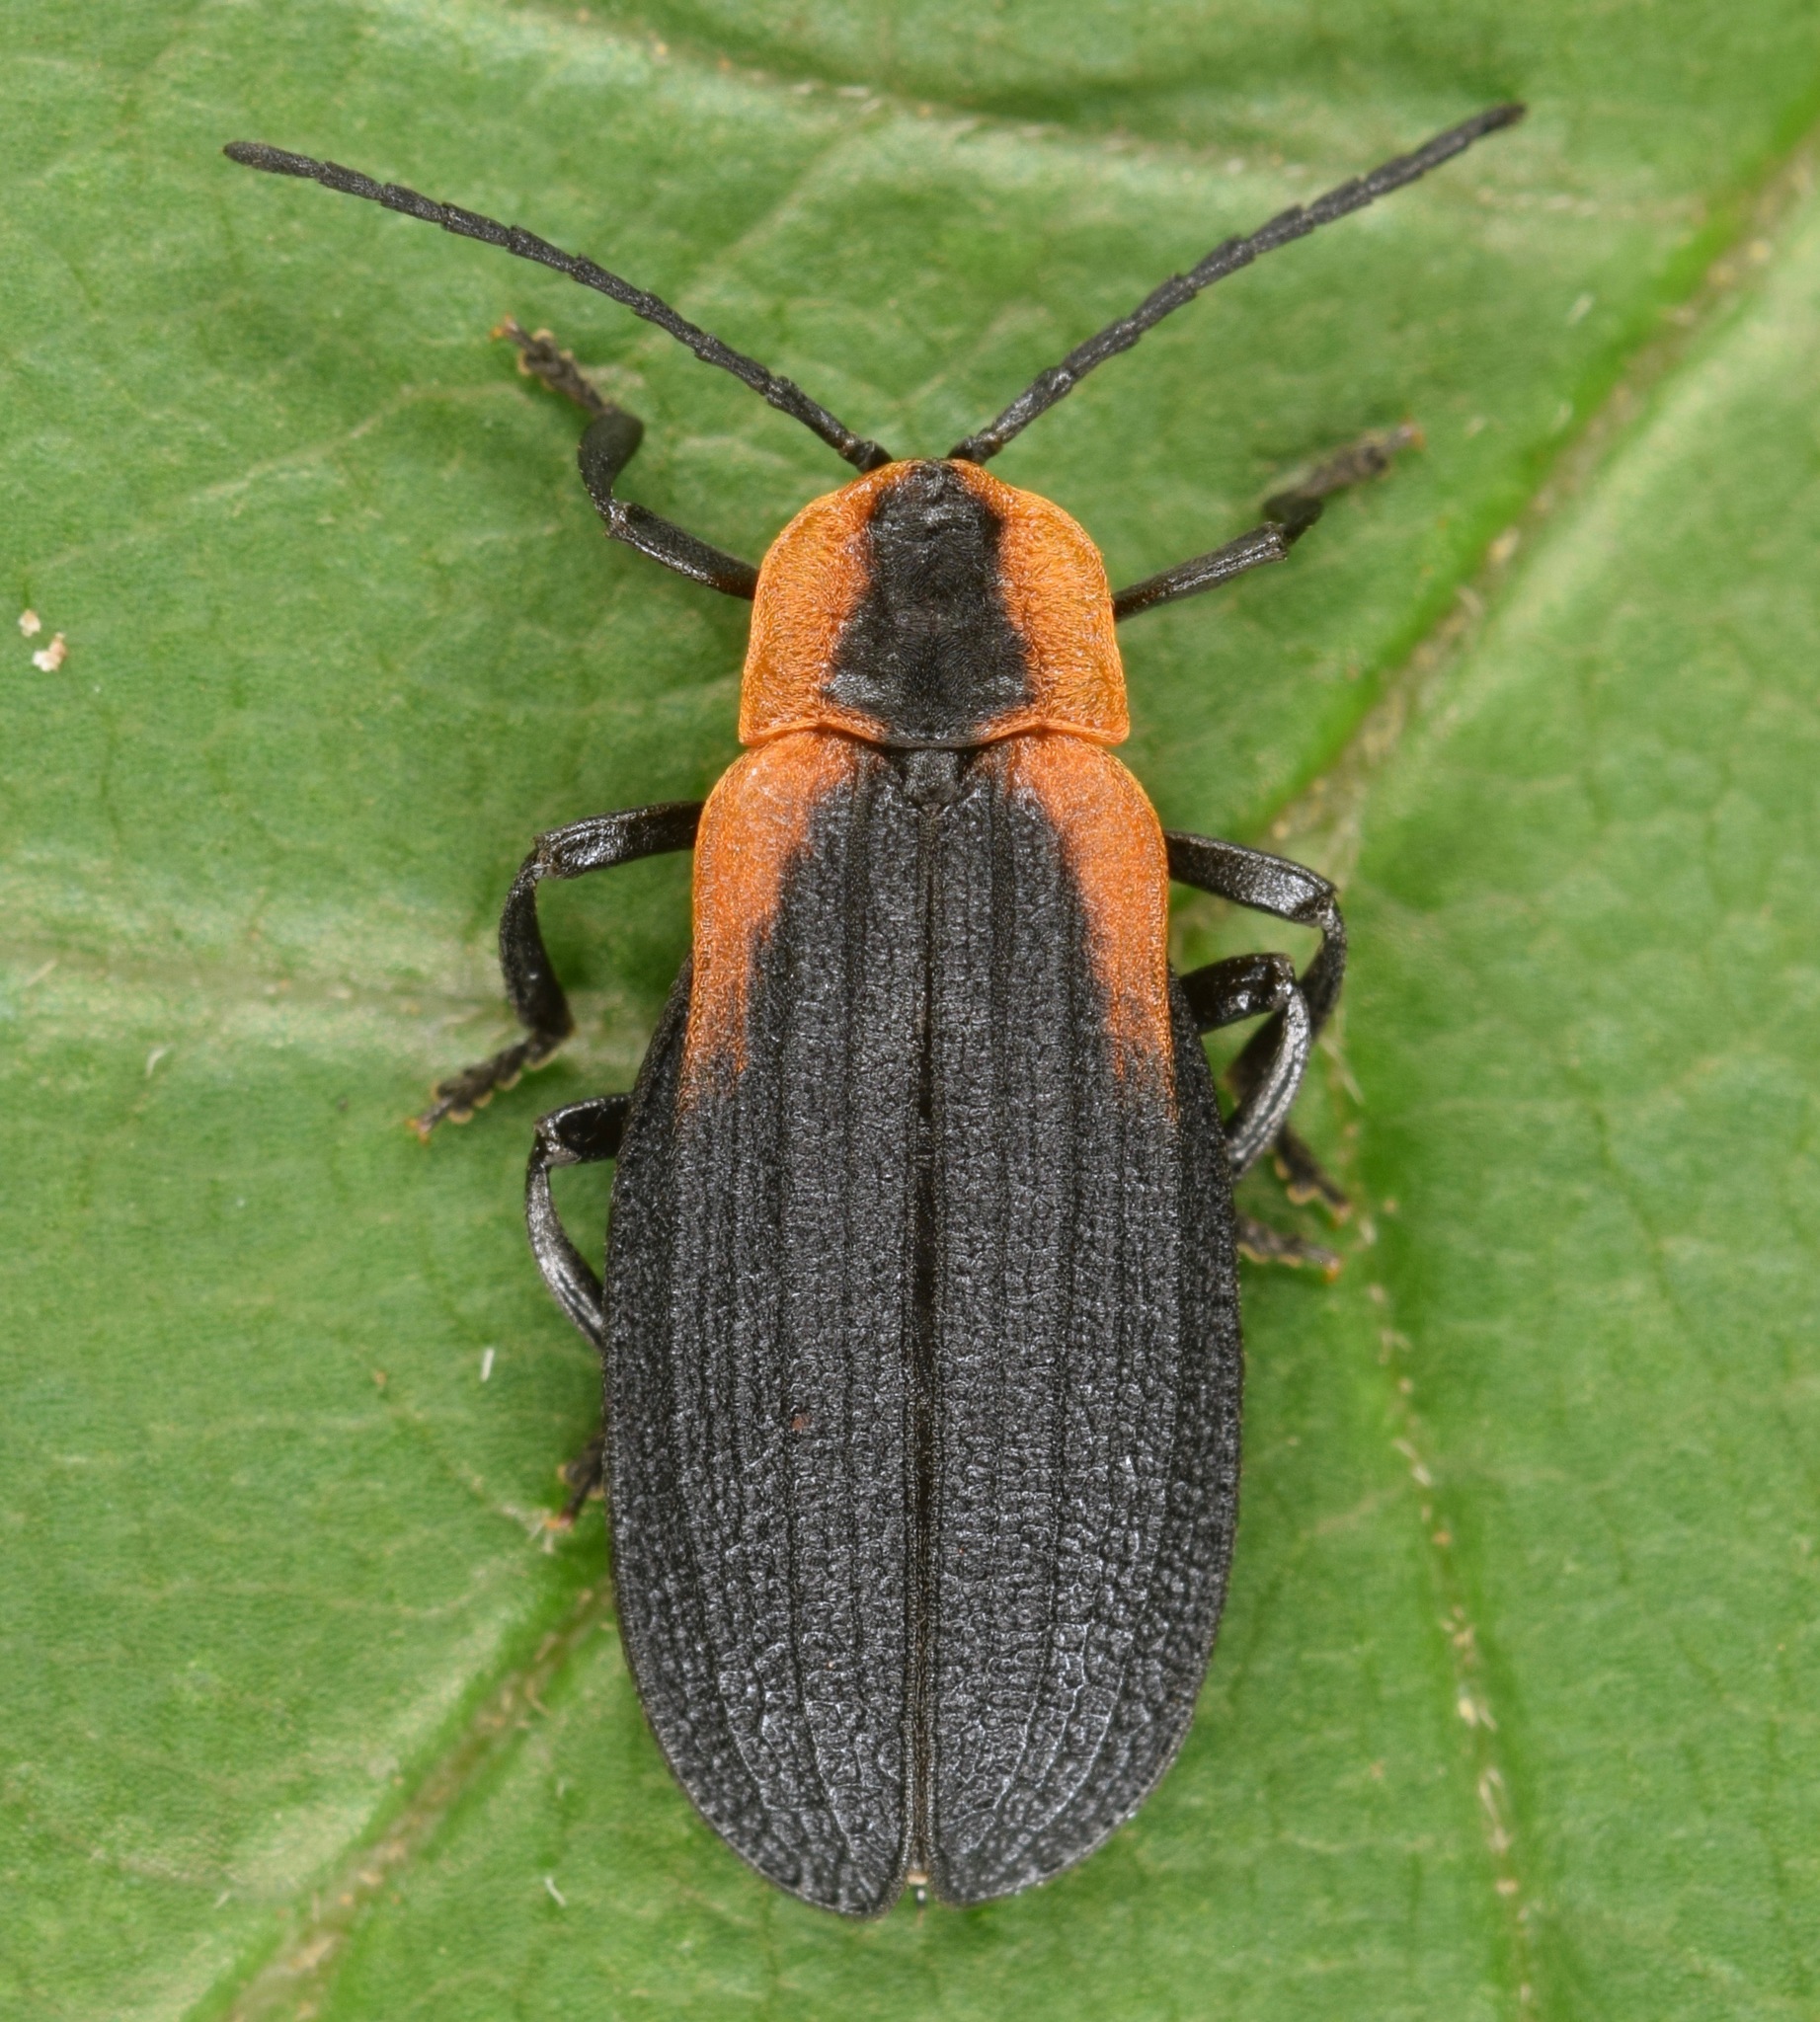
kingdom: Animalia
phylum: Arthropoda
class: Insecta
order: Coleoptera
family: Lycidae
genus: Lyconotus
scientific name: Lyconotus lateralis
